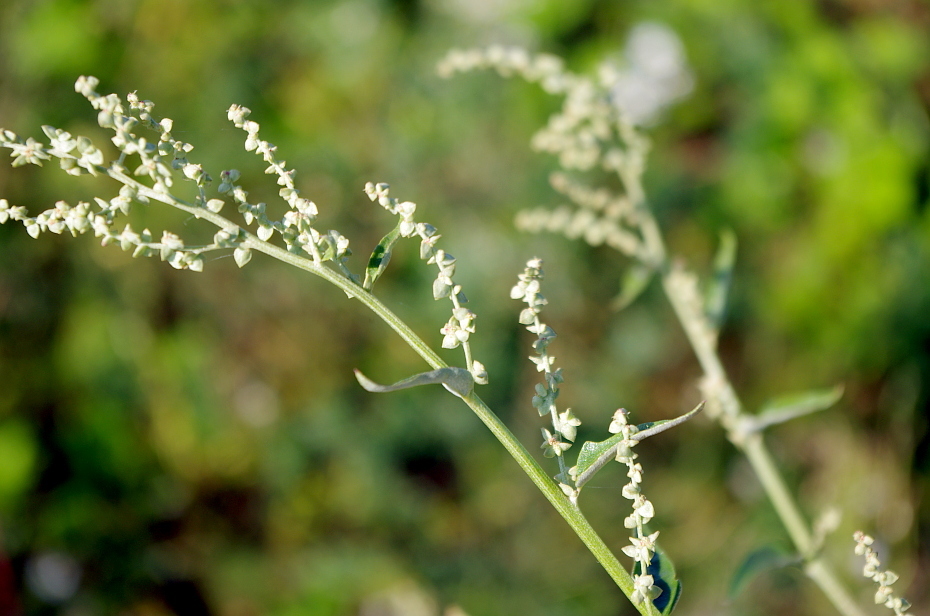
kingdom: Plantae
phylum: Tracheophyta
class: Magnoliopsida
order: Caryophyllales
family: Amaranthaceae
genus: Atriplex
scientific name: Atriplex sagittata
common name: Purple orache
